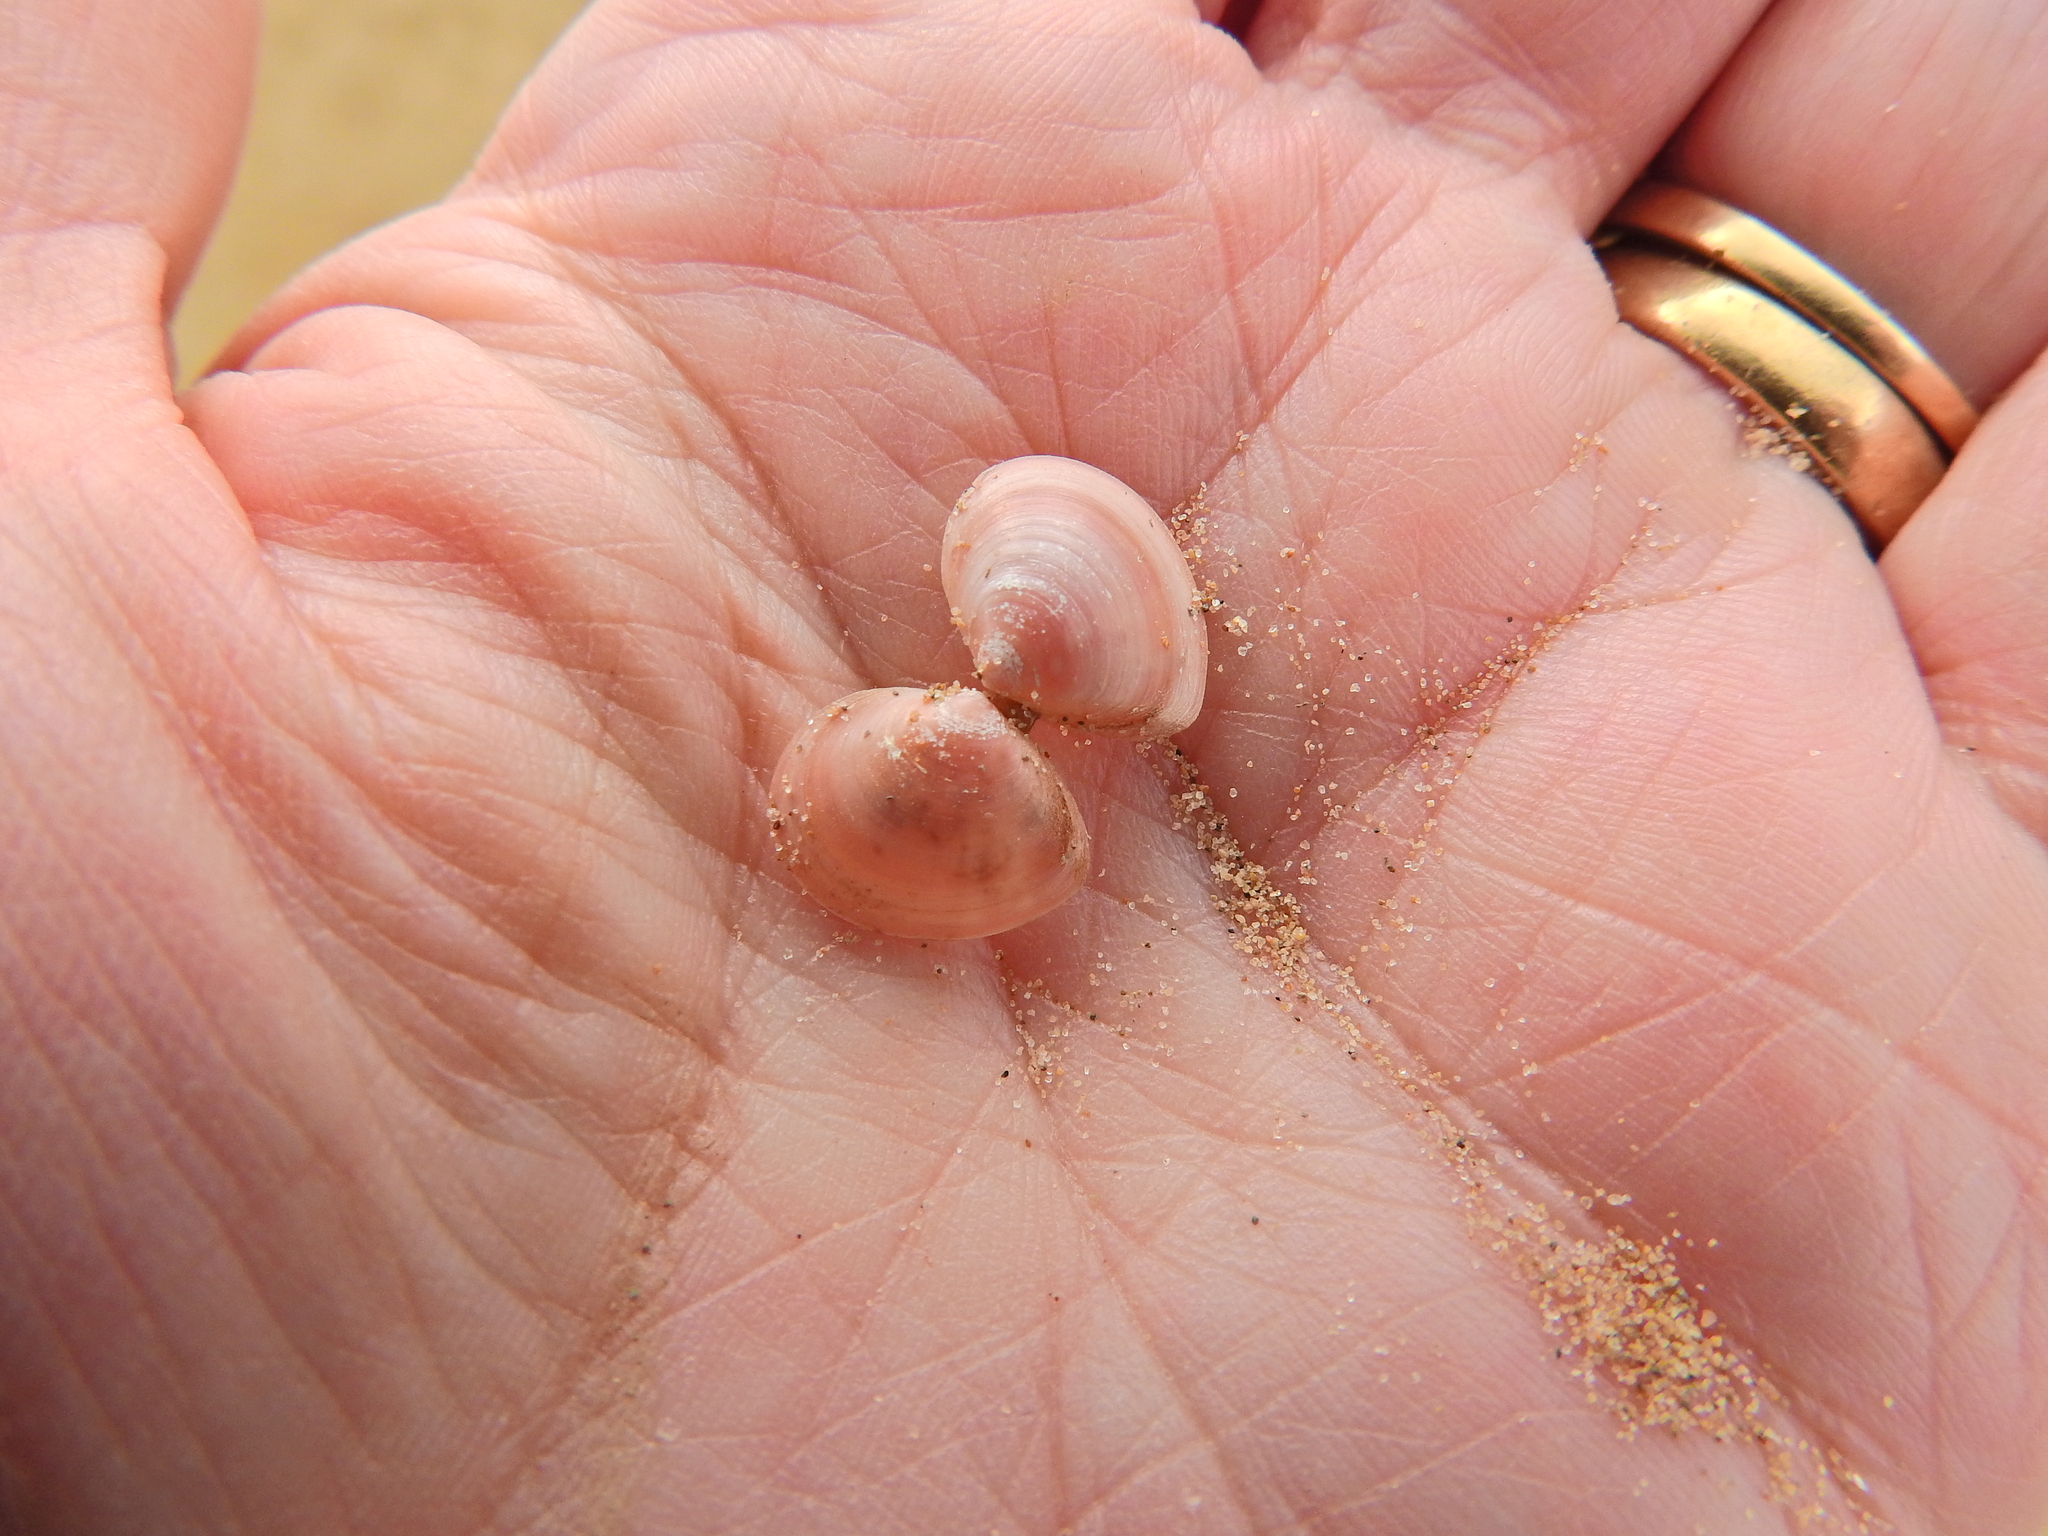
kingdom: Animalia
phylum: Mollusca
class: Bivalvia
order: Cardiida
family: Tellinidae
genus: Macoma
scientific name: Macoma balthica
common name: Baltic tellin
